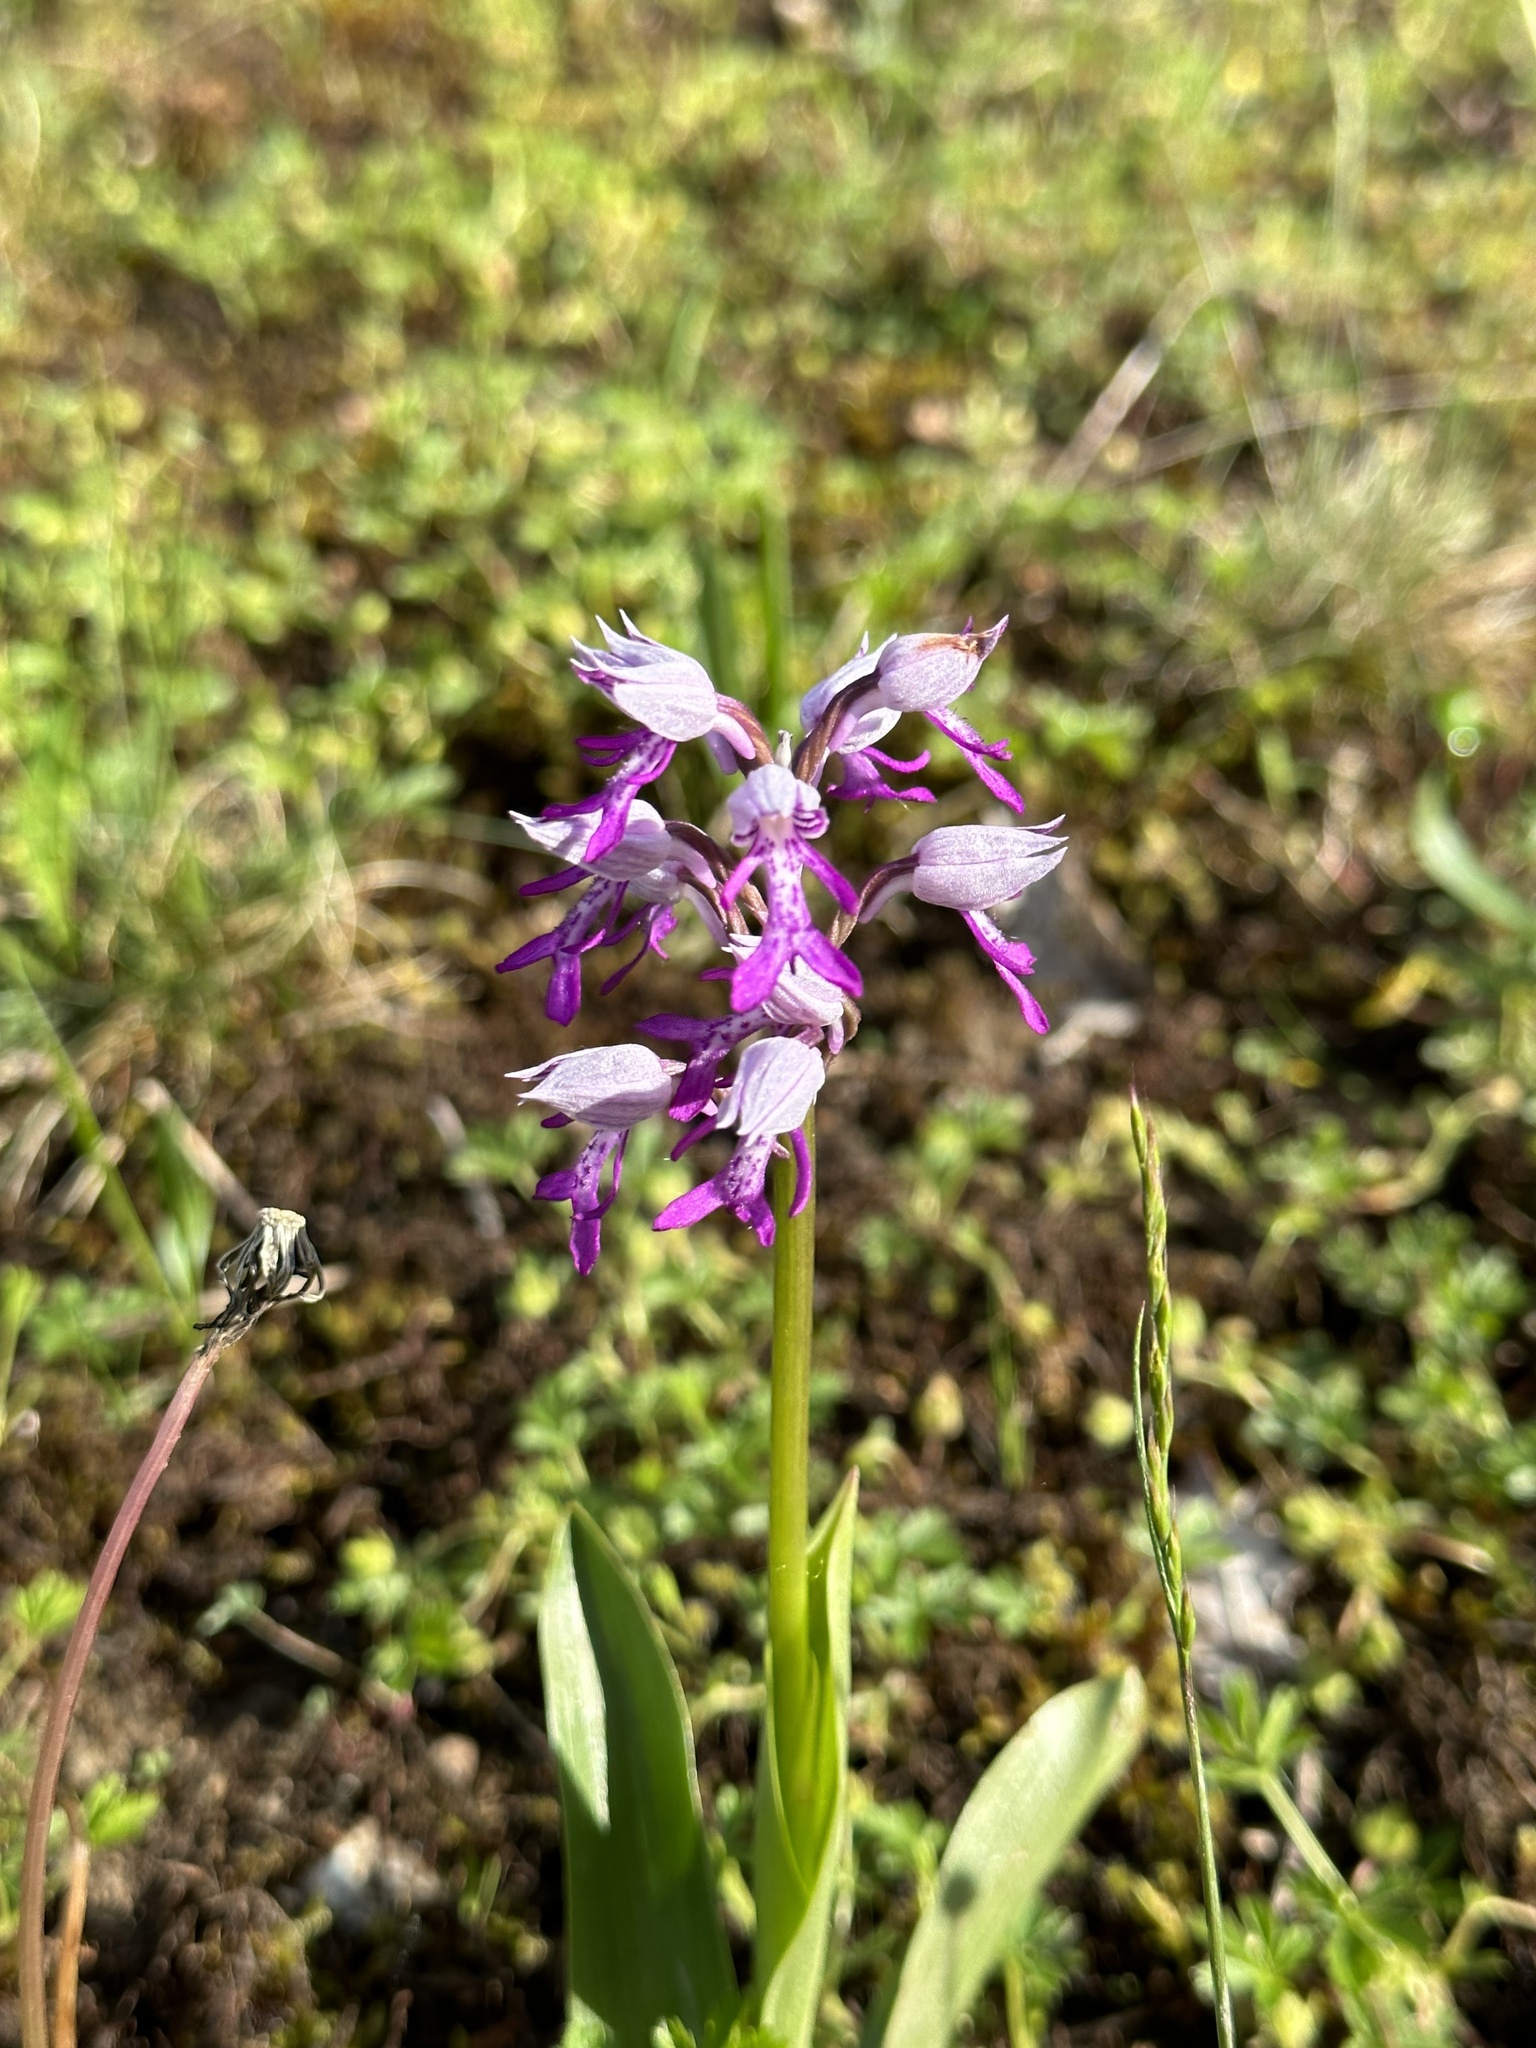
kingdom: Plantae
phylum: Tracheophyta
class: Liliopsida
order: Asparagales
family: Orchidaceae
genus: Orchis
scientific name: Orchis militaris
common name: Military orchid
